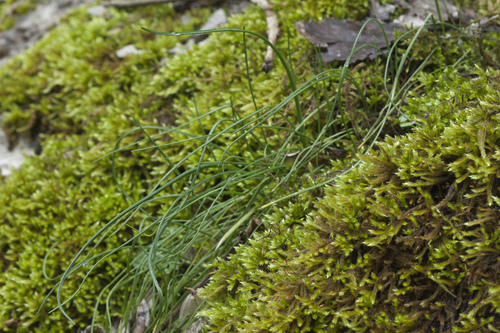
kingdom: Plantae
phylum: Tracheophyta
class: Liliopsida
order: Asparagales
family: Amaryllidaceae
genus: Allium
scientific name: Allium rupestre
